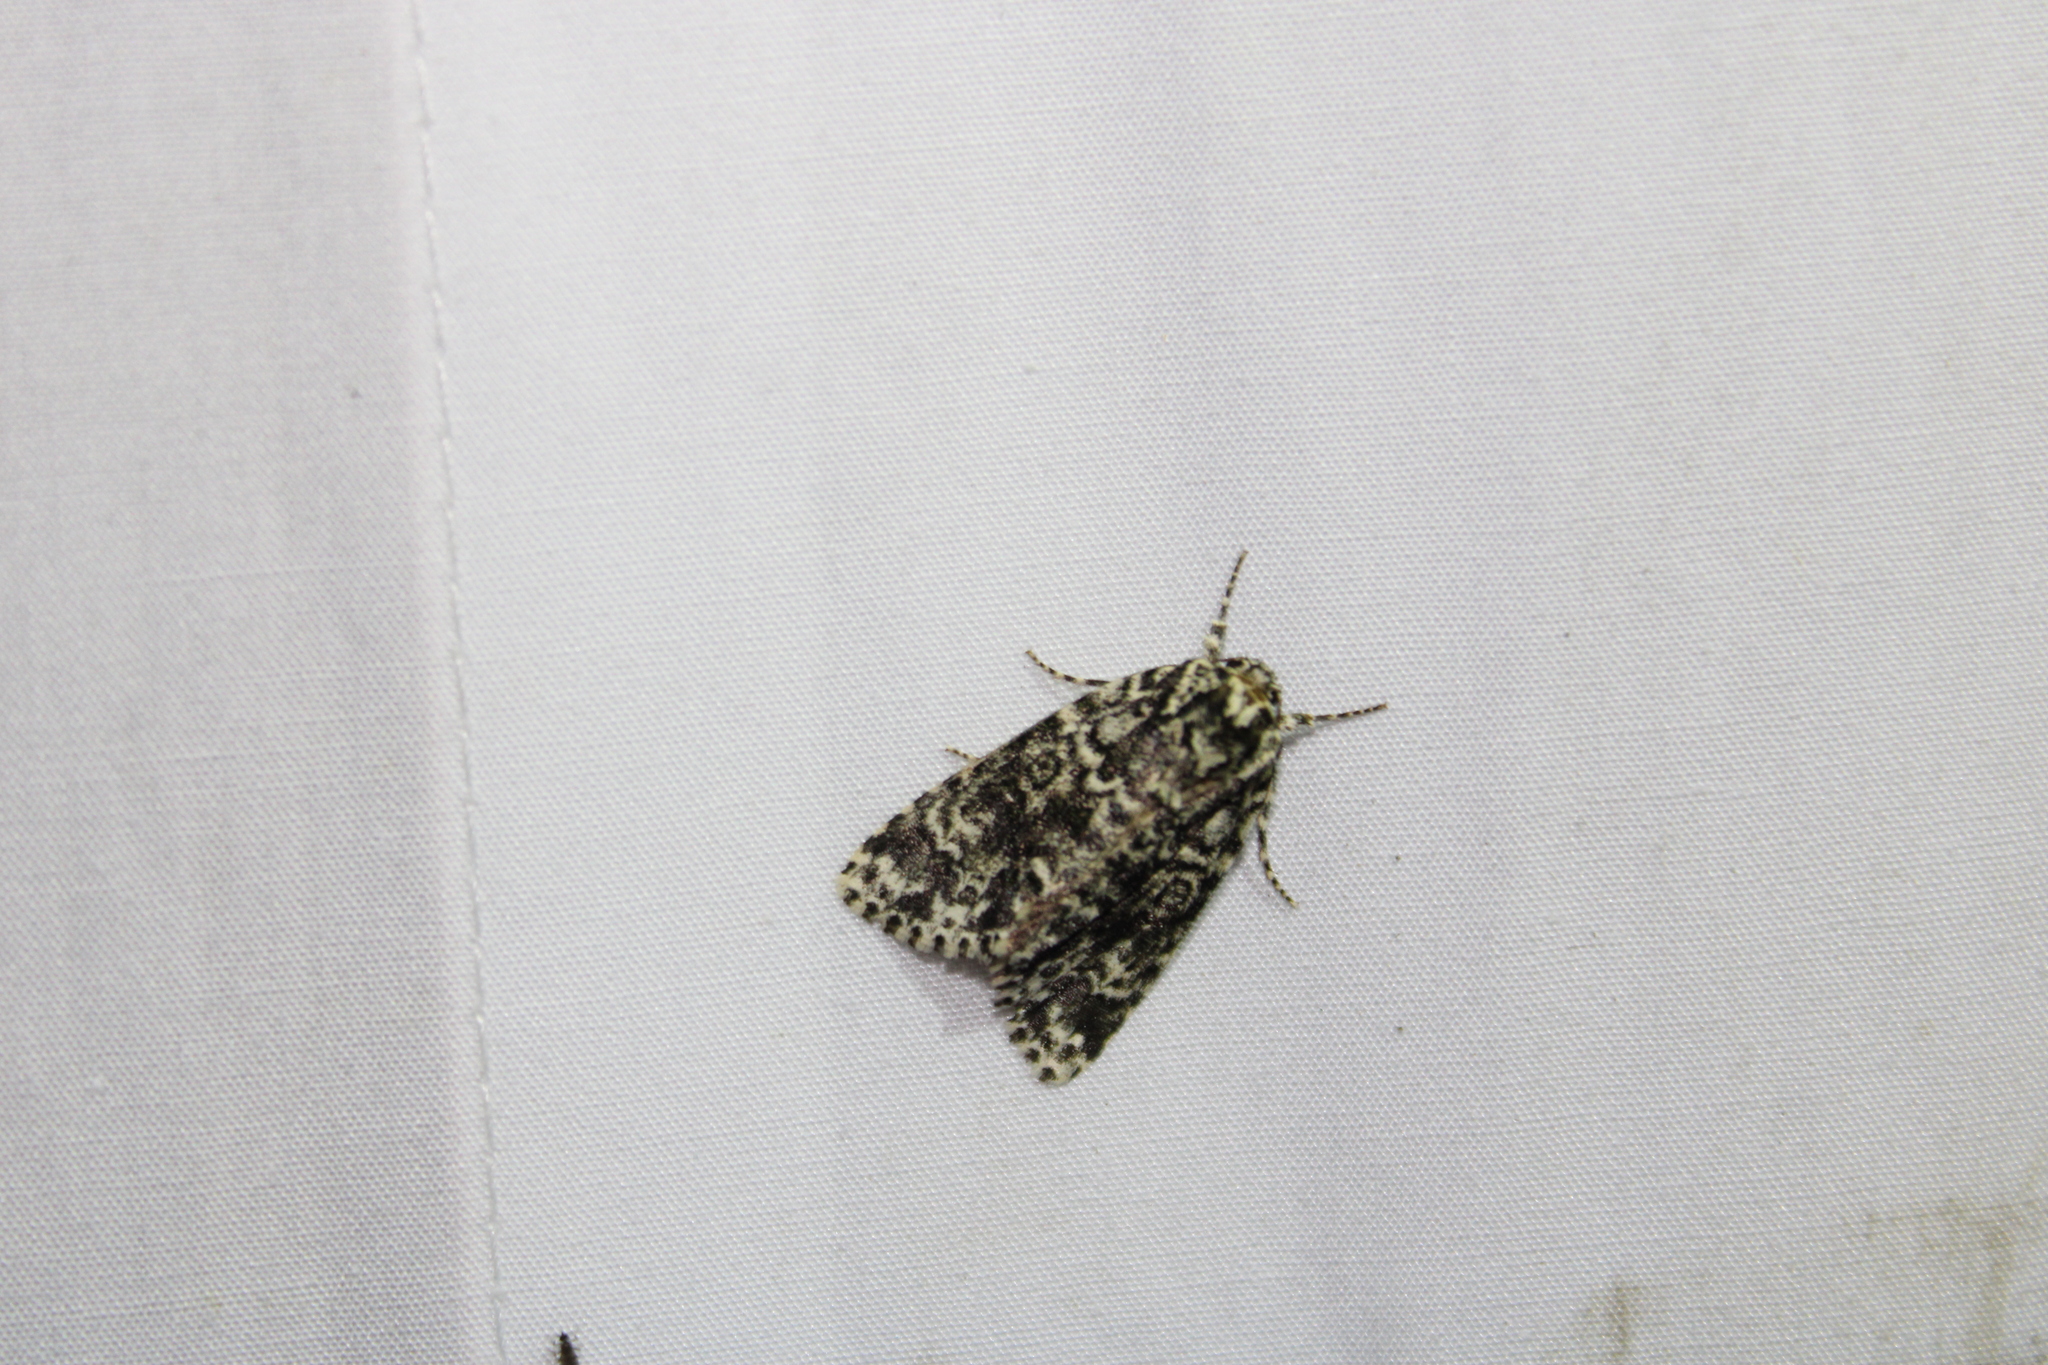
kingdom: Animalia
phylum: Arthropoda
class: Insecta
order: Lepidoptera
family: Noctuidae
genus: Acronicta
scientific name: Acronicta noctivaga
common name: Night-wandering dagger
